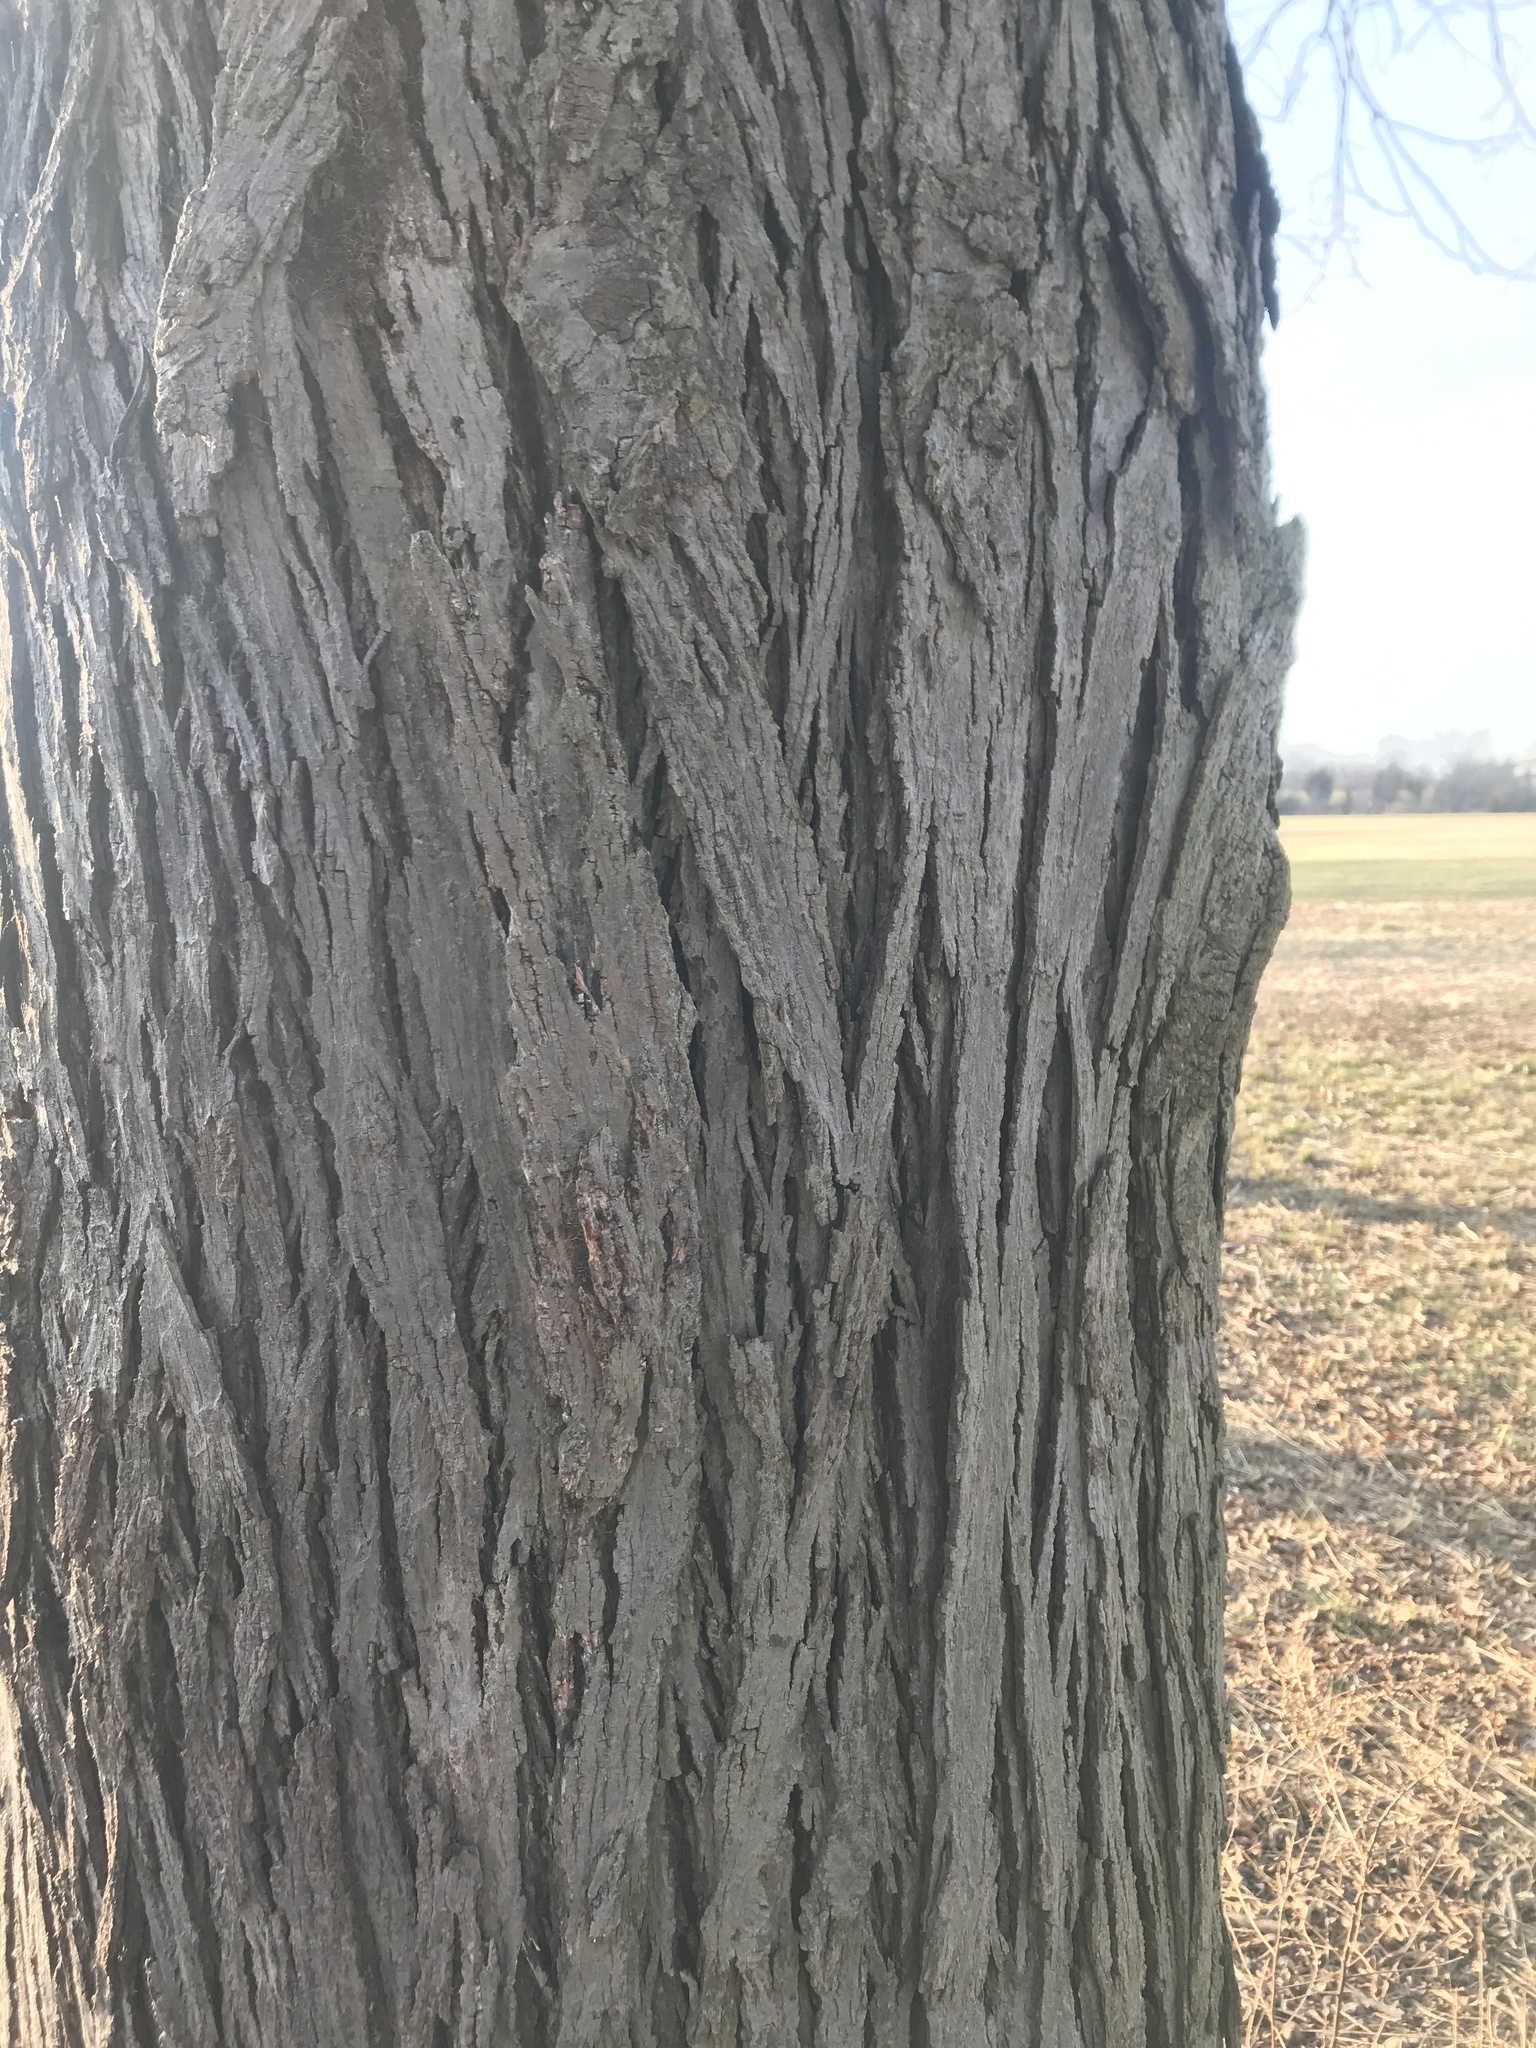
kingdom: Plantae
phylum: Tracheophyta
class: Magnoliopsida
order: Fagales
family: Juglandaceae
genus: Carya
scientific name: Carya ovata
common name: Shagbark hickory
